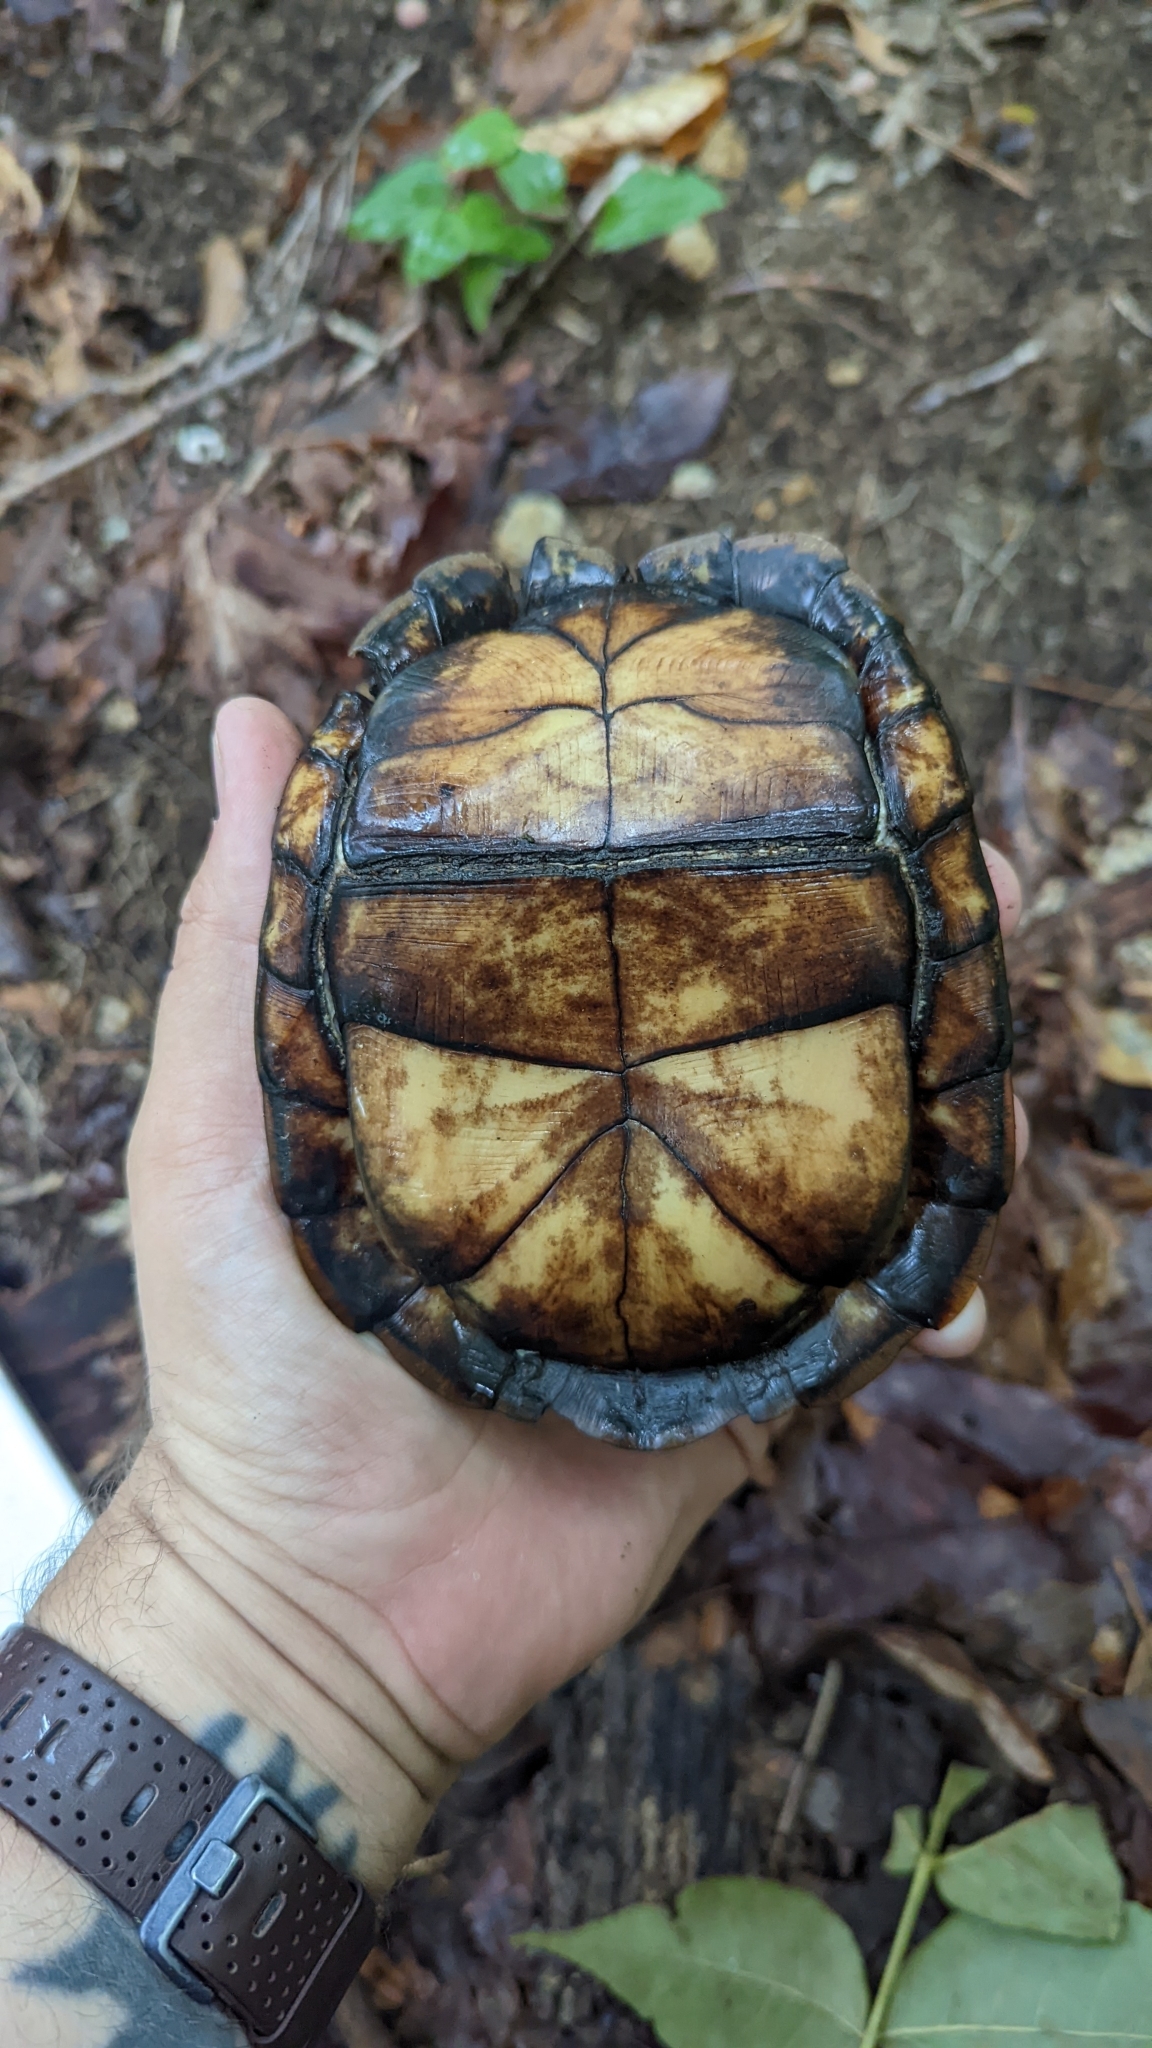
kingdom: Animalia
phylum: Chordata
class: Testudines
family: Emydidae
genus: Terrapene
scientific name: Terrapene carolina
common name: Common box turtle
